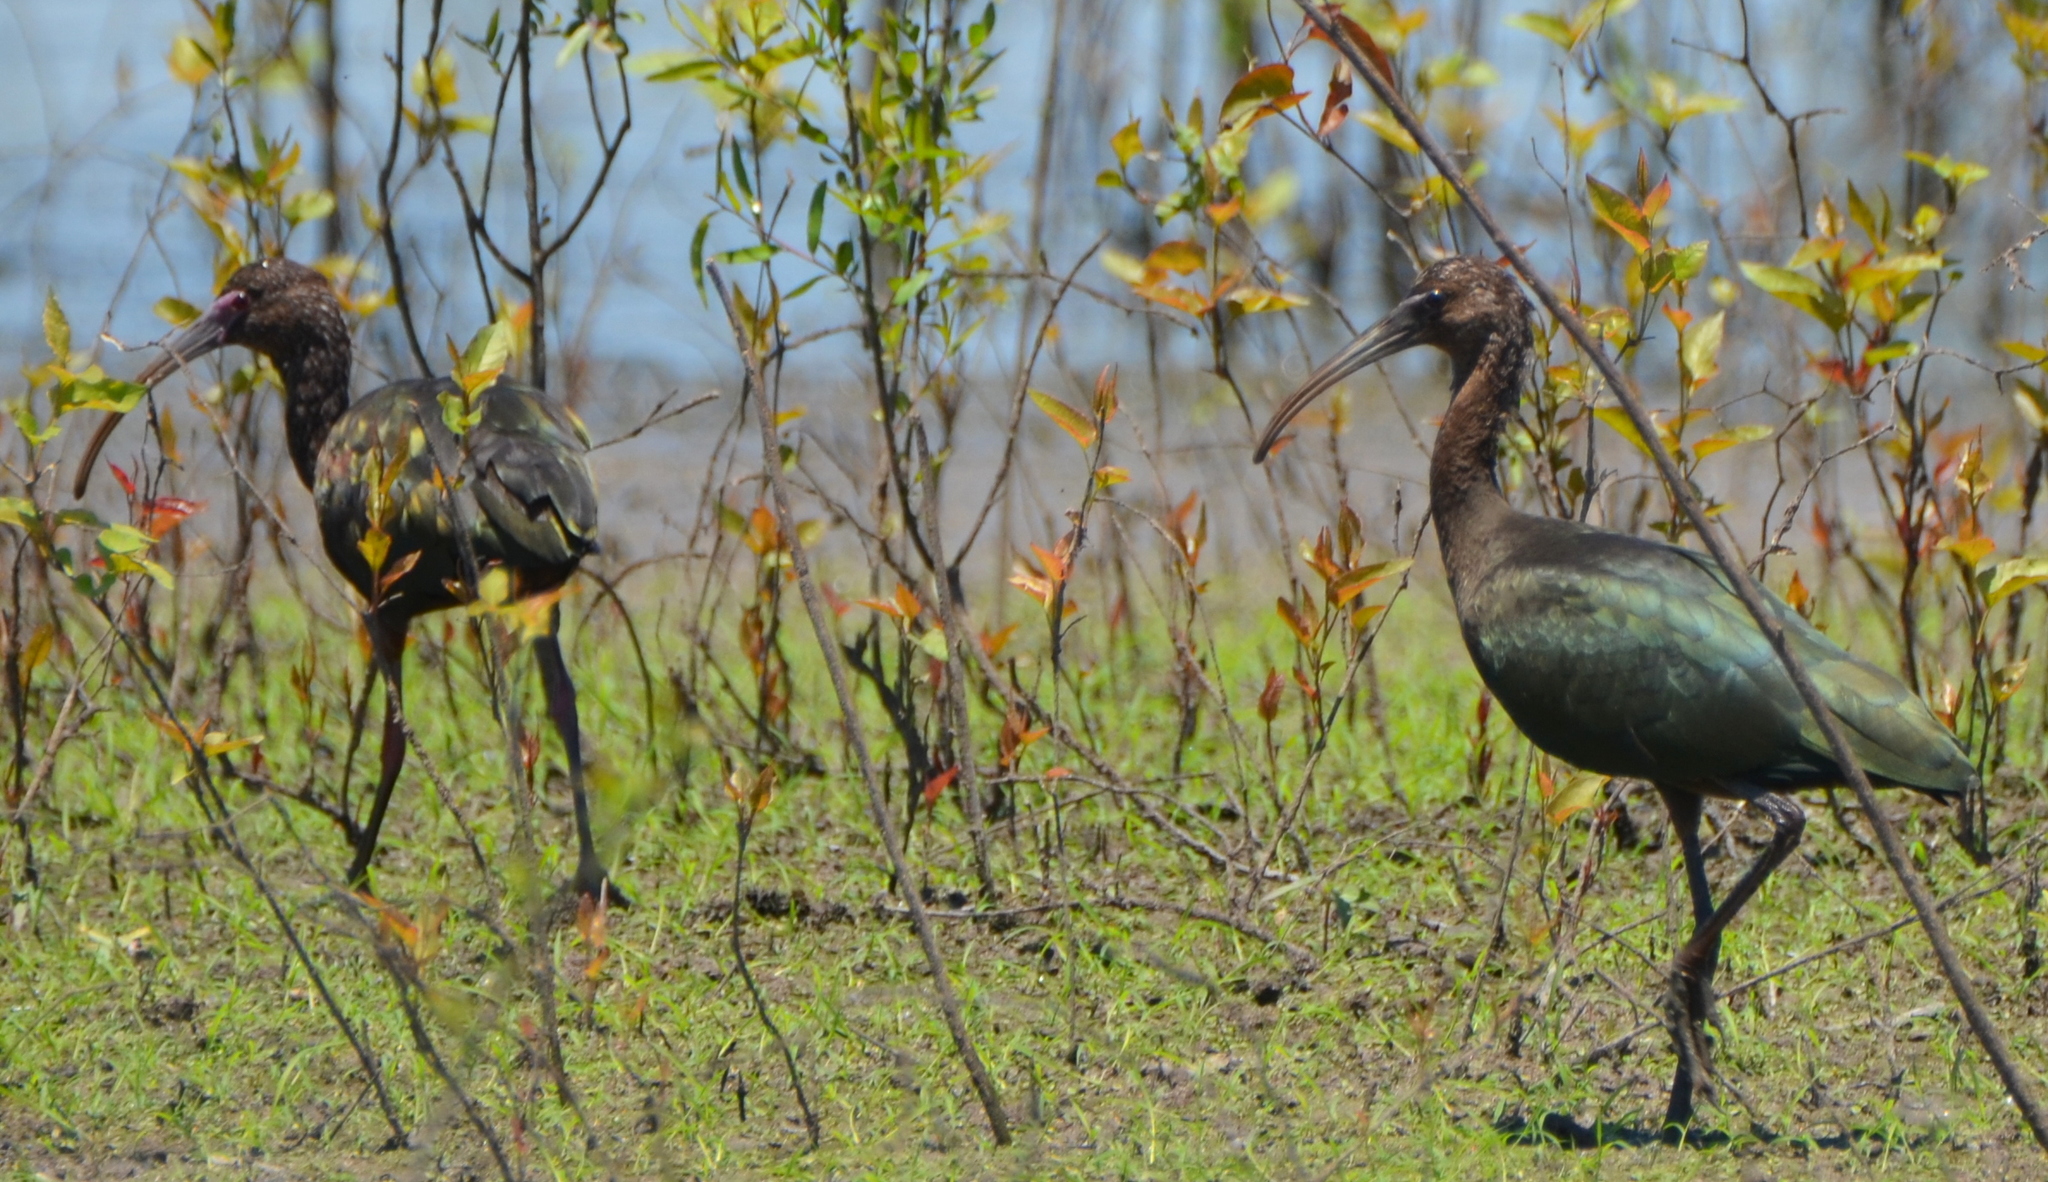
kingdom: Animalia
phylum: Chordata
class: Aves
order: Pelecaniformes
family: Threskiornithidae
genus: Plegadis
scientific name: Plegadis falcinellus
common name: Glossy ibis
